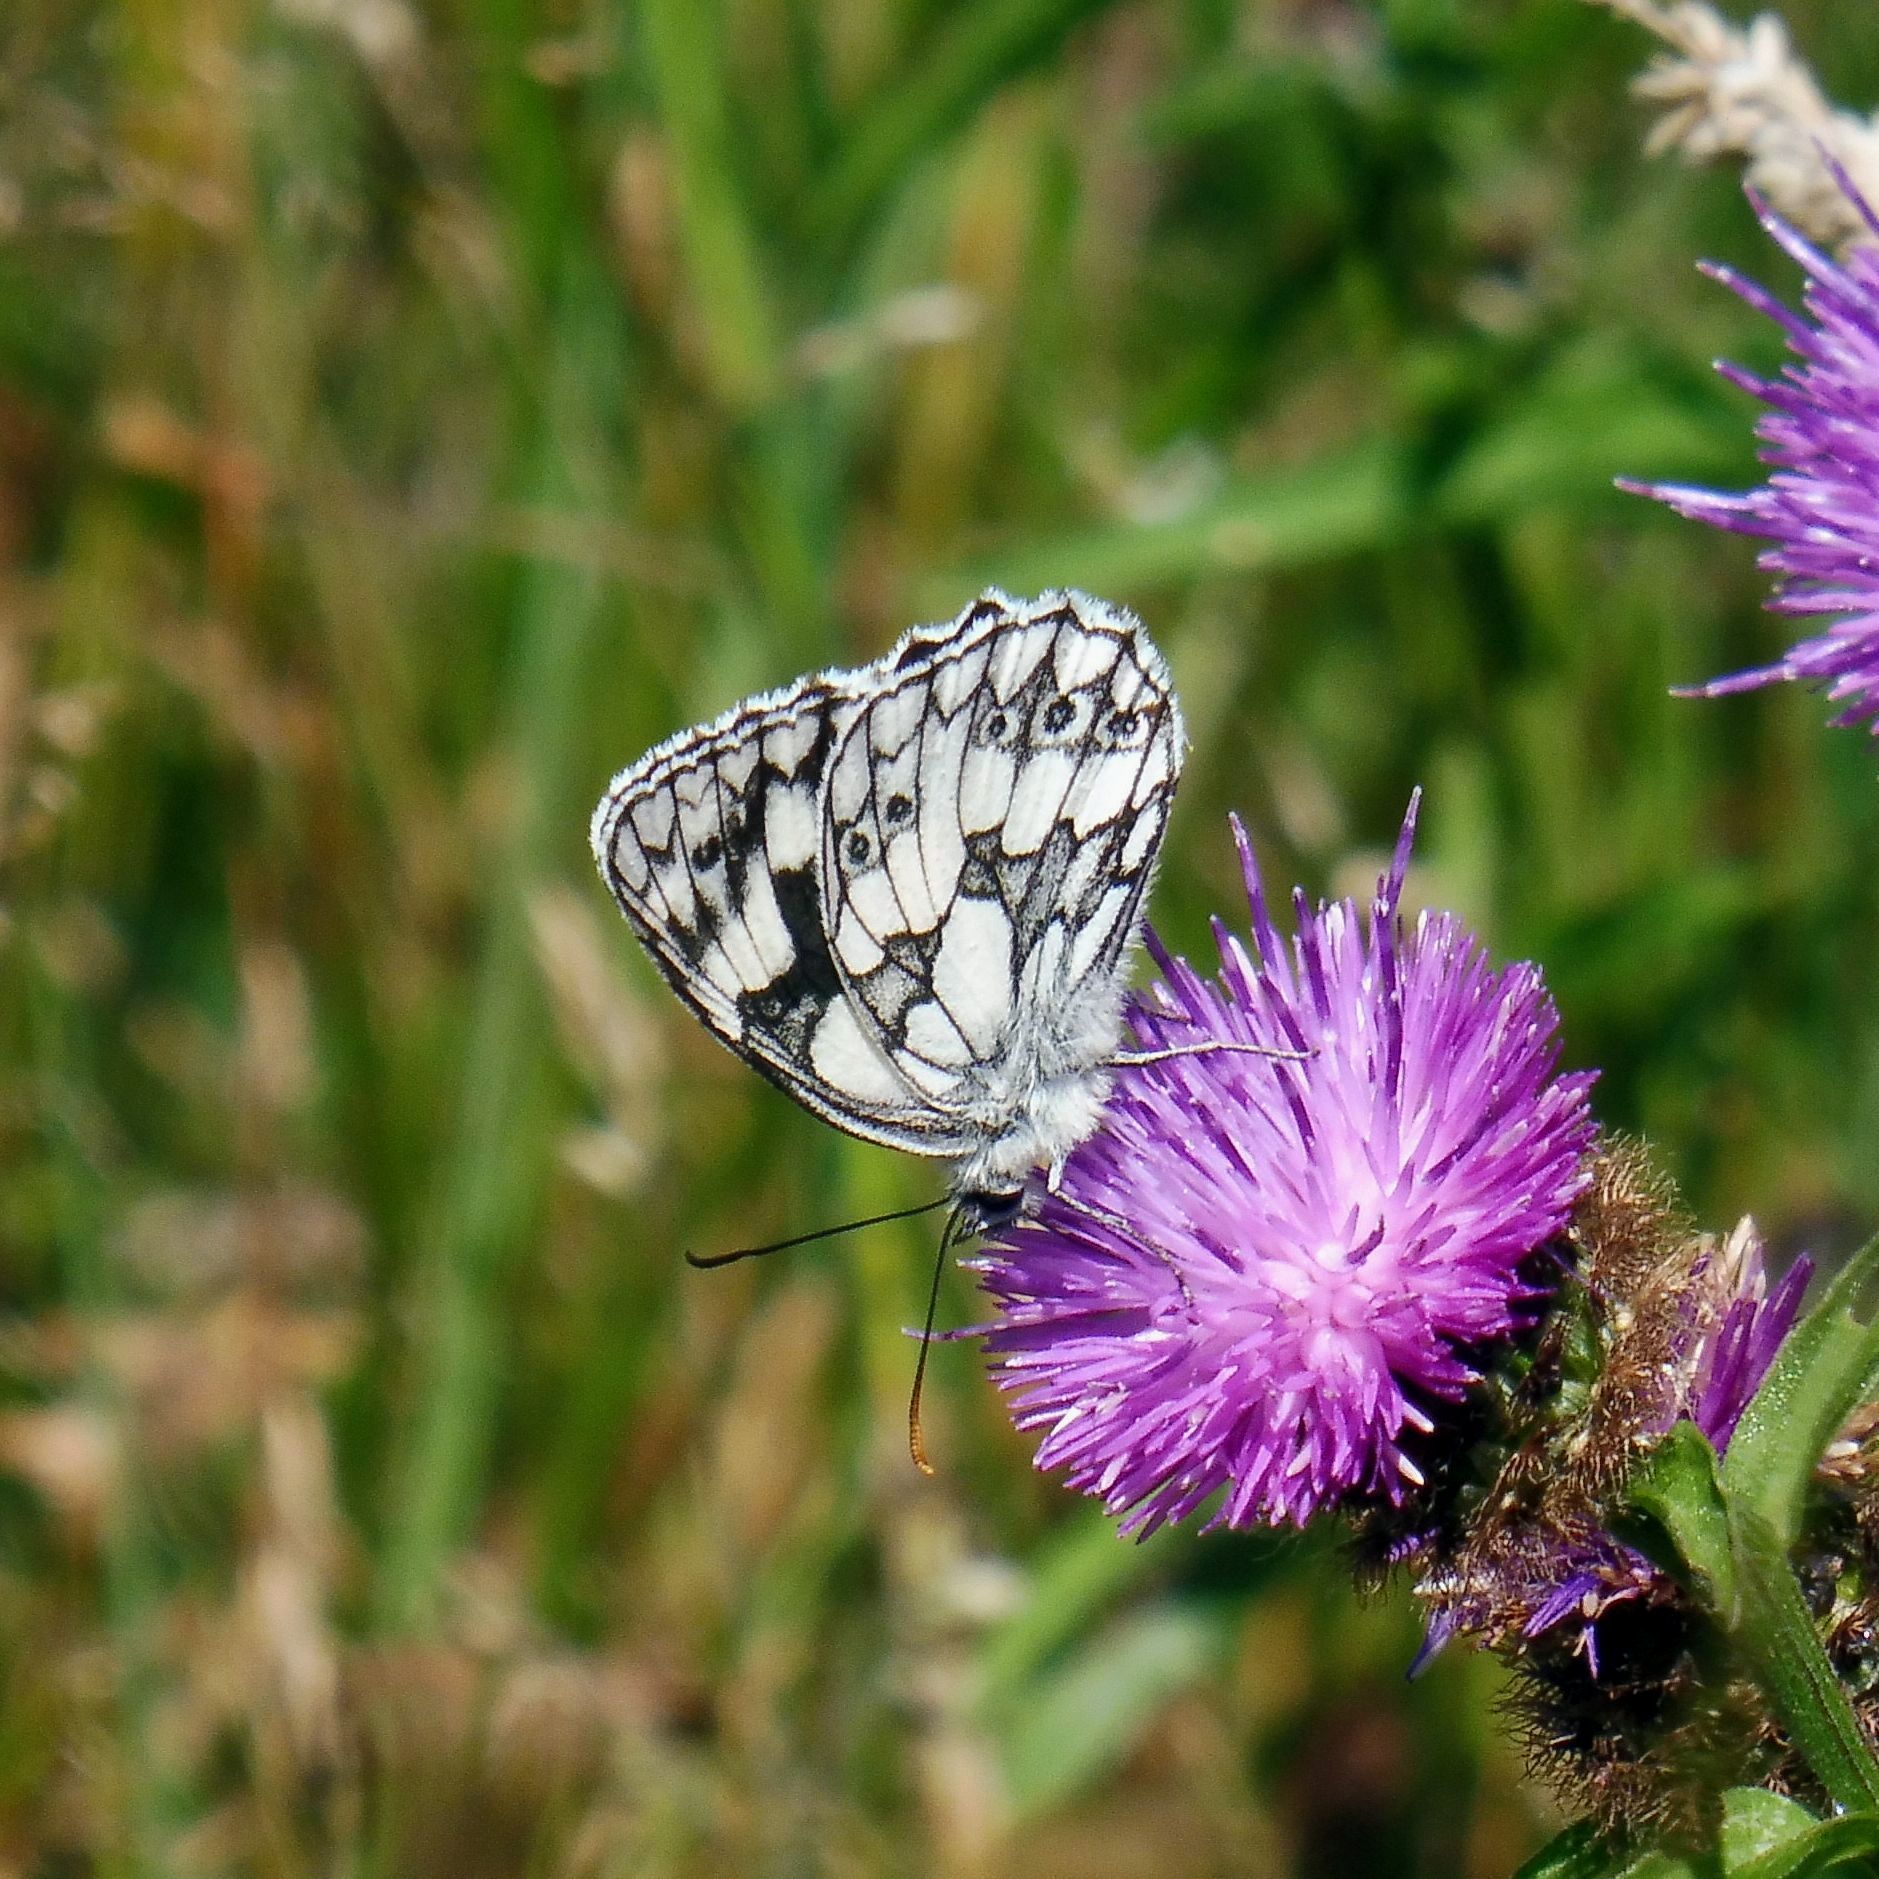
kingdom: Animalia
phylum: Arthropoda
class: Insecta
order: Lepidoptera
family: Nymphalidae
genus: Melanargia
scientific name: Melanargia galathea
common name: Marbled white
